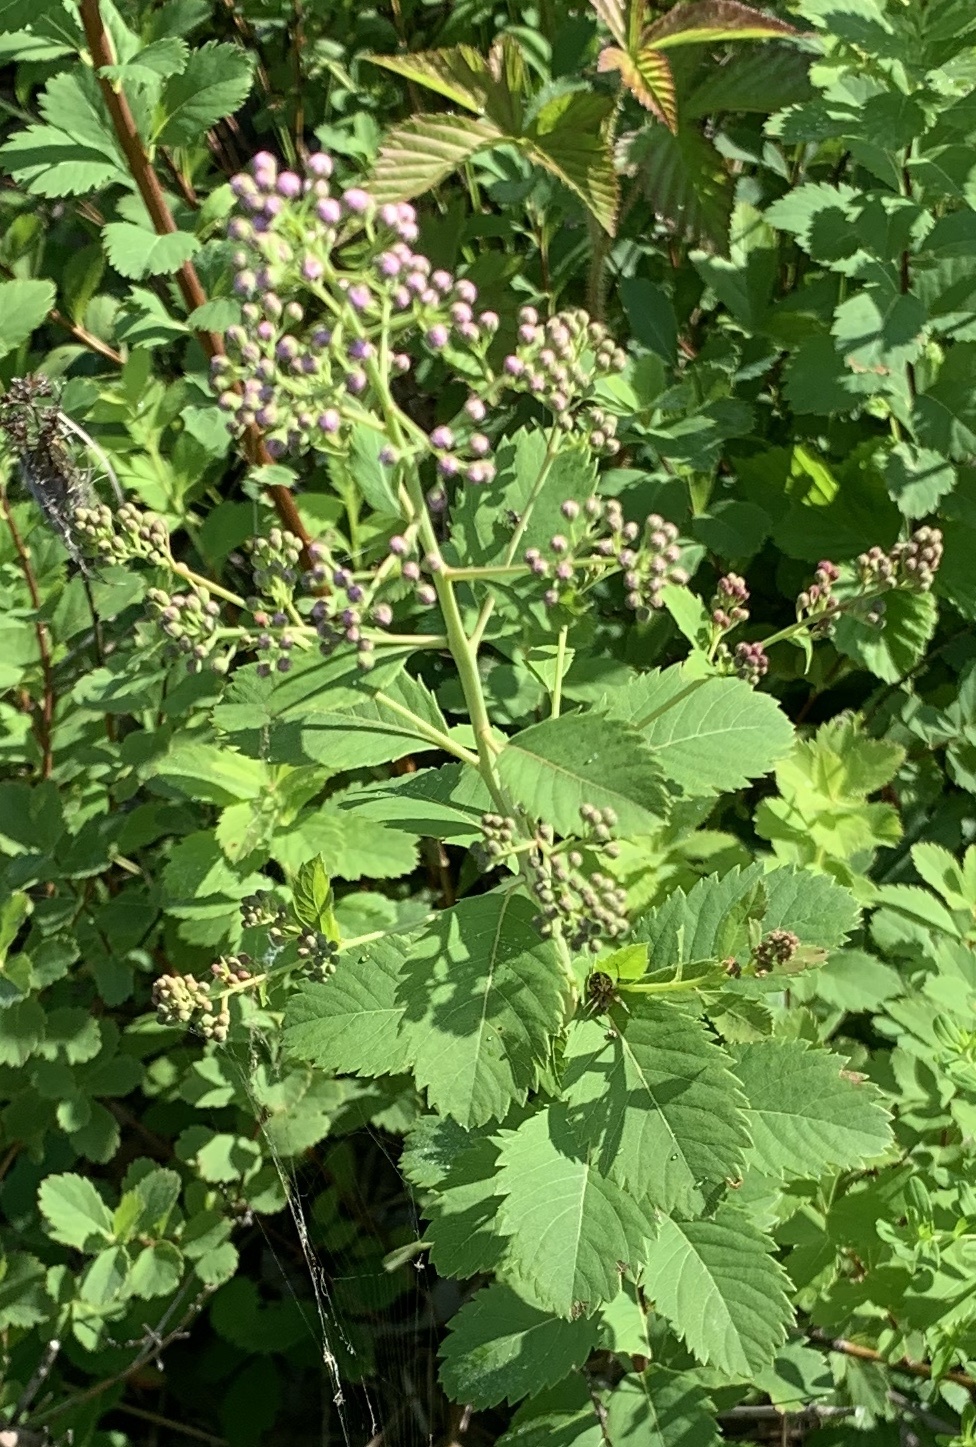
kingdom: Plantae
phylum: Tracheophyta
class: Magnoliopsida
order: Rosales
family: Rosaceae
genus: Spiraea
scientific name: Spiraea alba
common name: Pale bridewort
